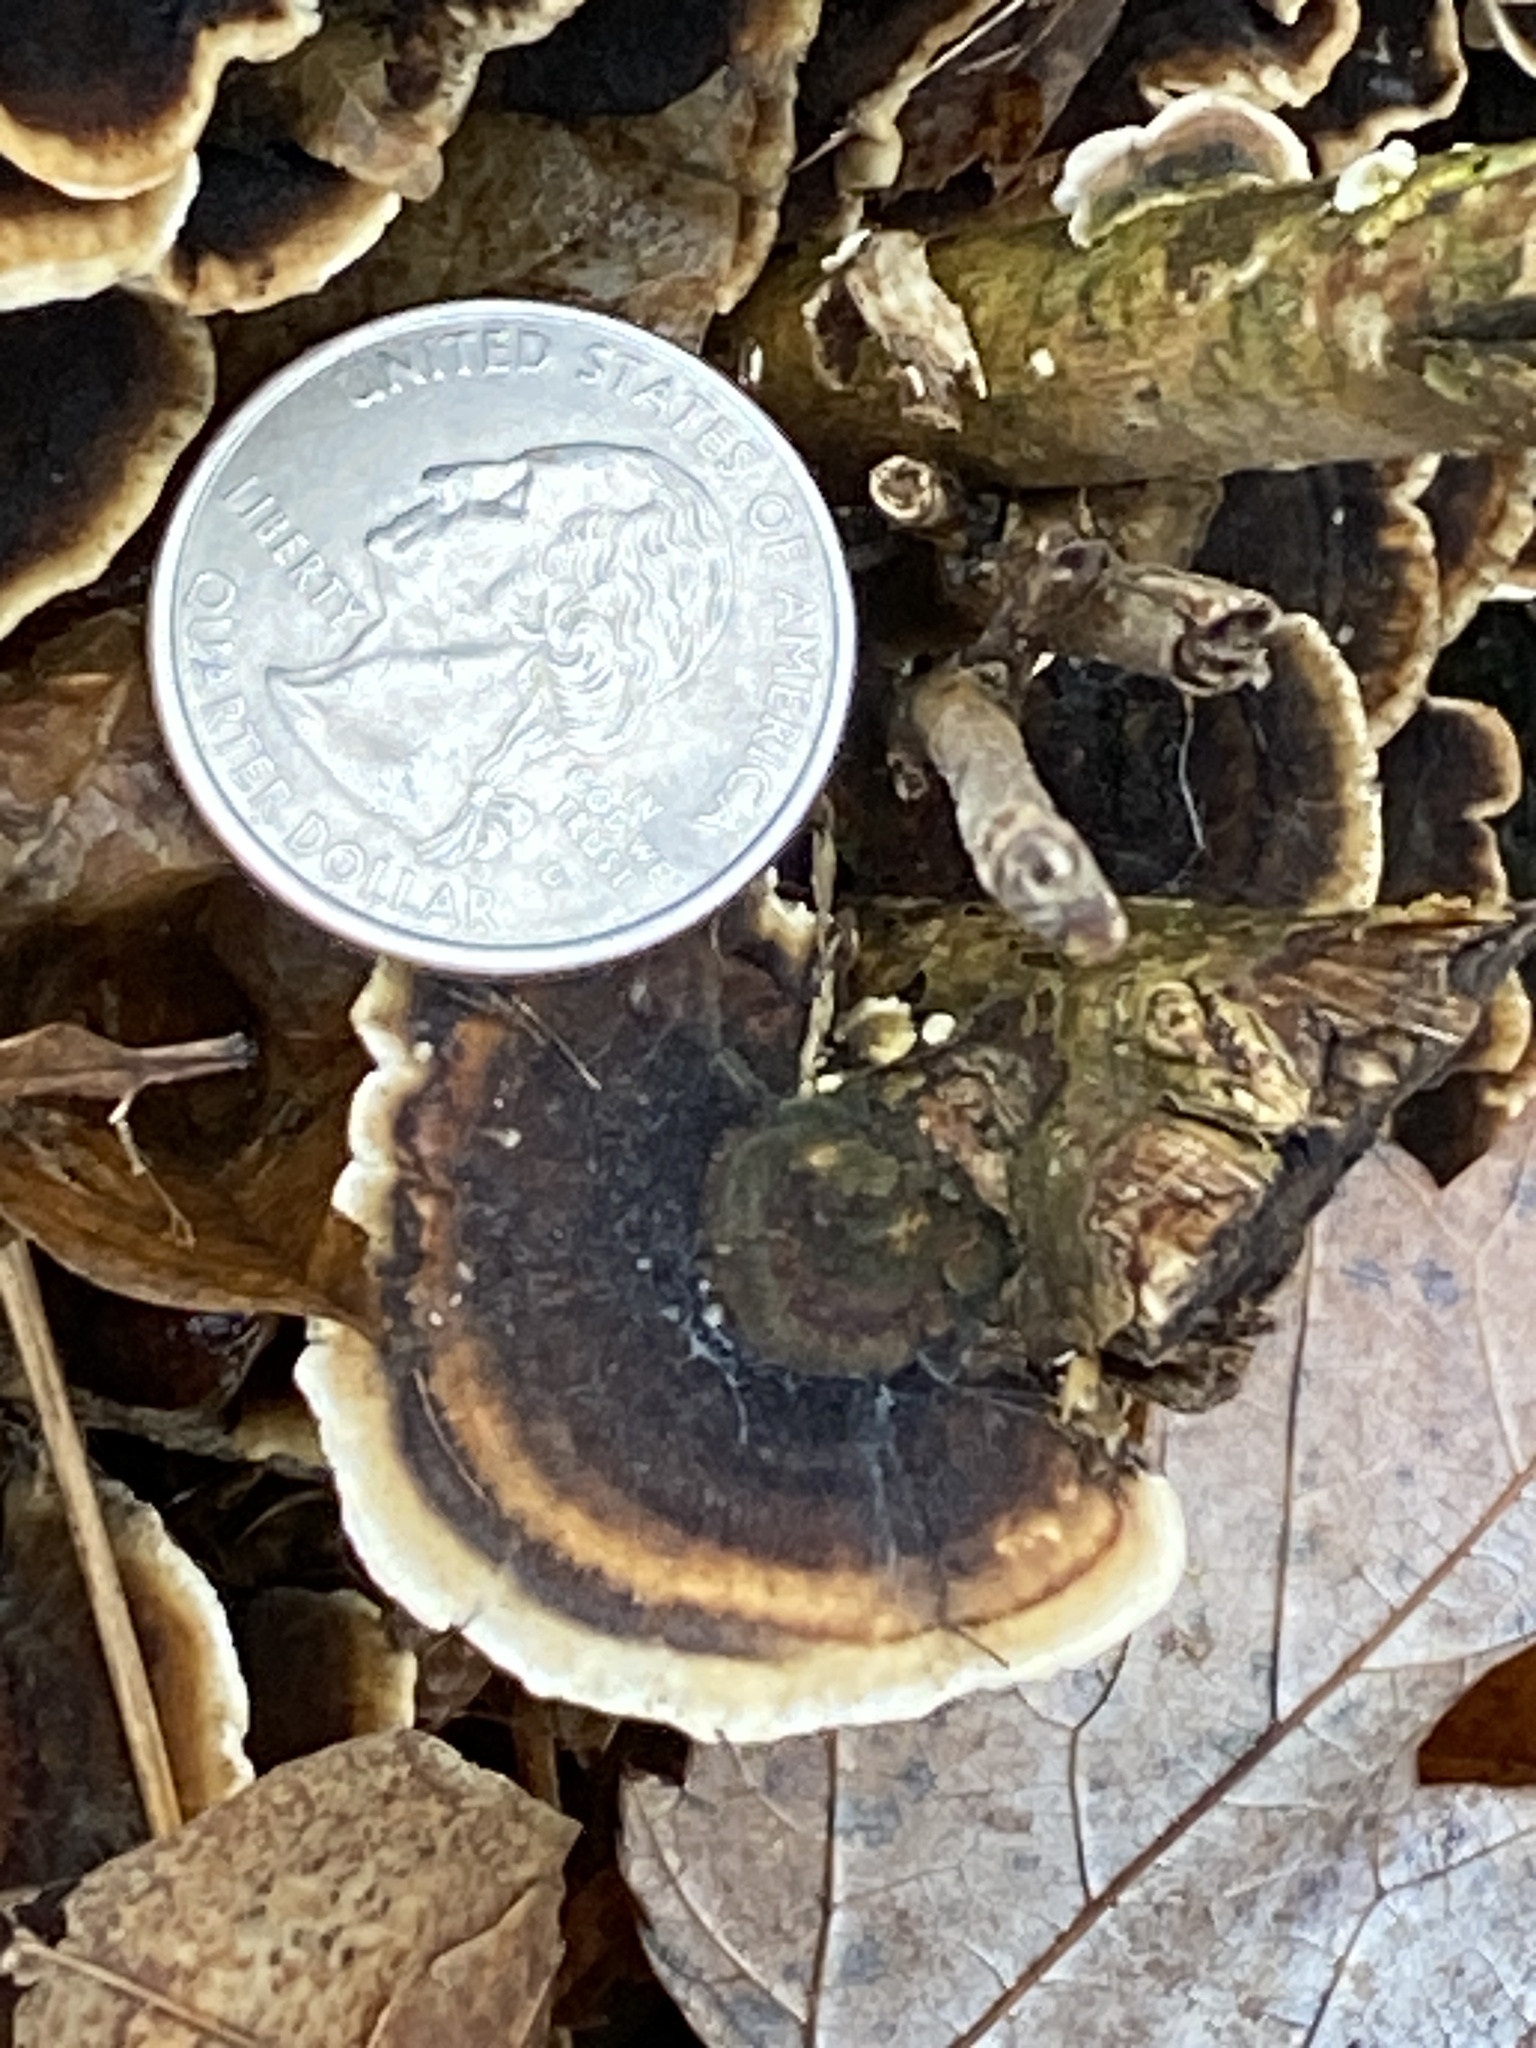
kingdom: Fungi
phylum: Basidiomycota
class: Agaricomycetes
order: Polyporales
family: Polyporaceae
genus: Trametes
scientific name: Trametes versicolor
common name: Turkeytail
